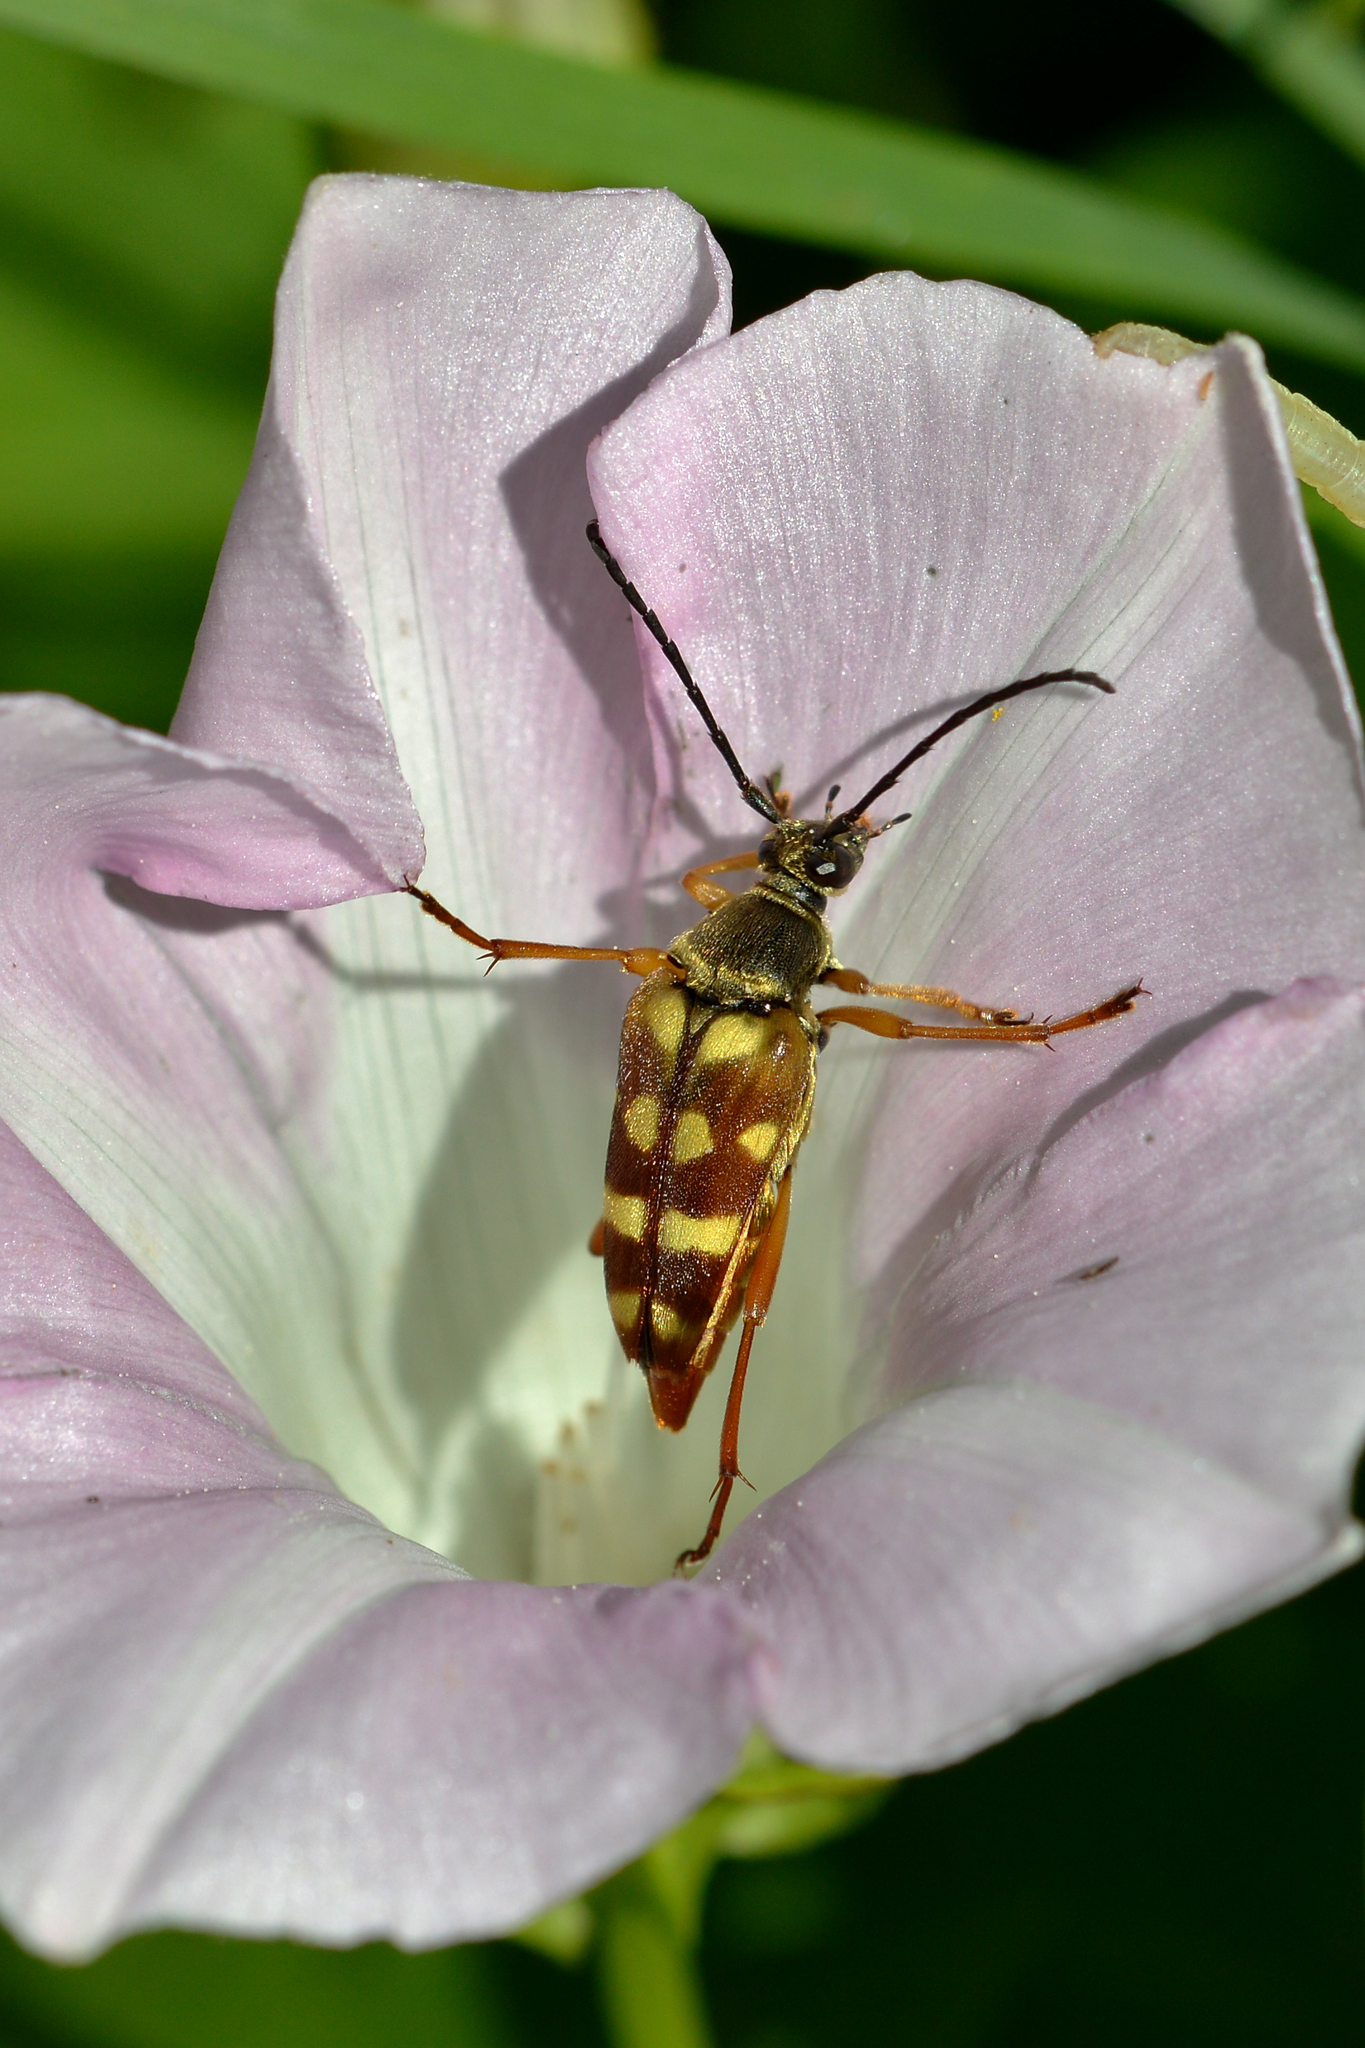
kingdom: Animalia
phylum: Arthropoda
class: Insecta
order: Coleoptera
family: Cerambycidae
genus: Typocerus
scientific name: Typocerus velutinus
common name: Banded longhorn beetle
